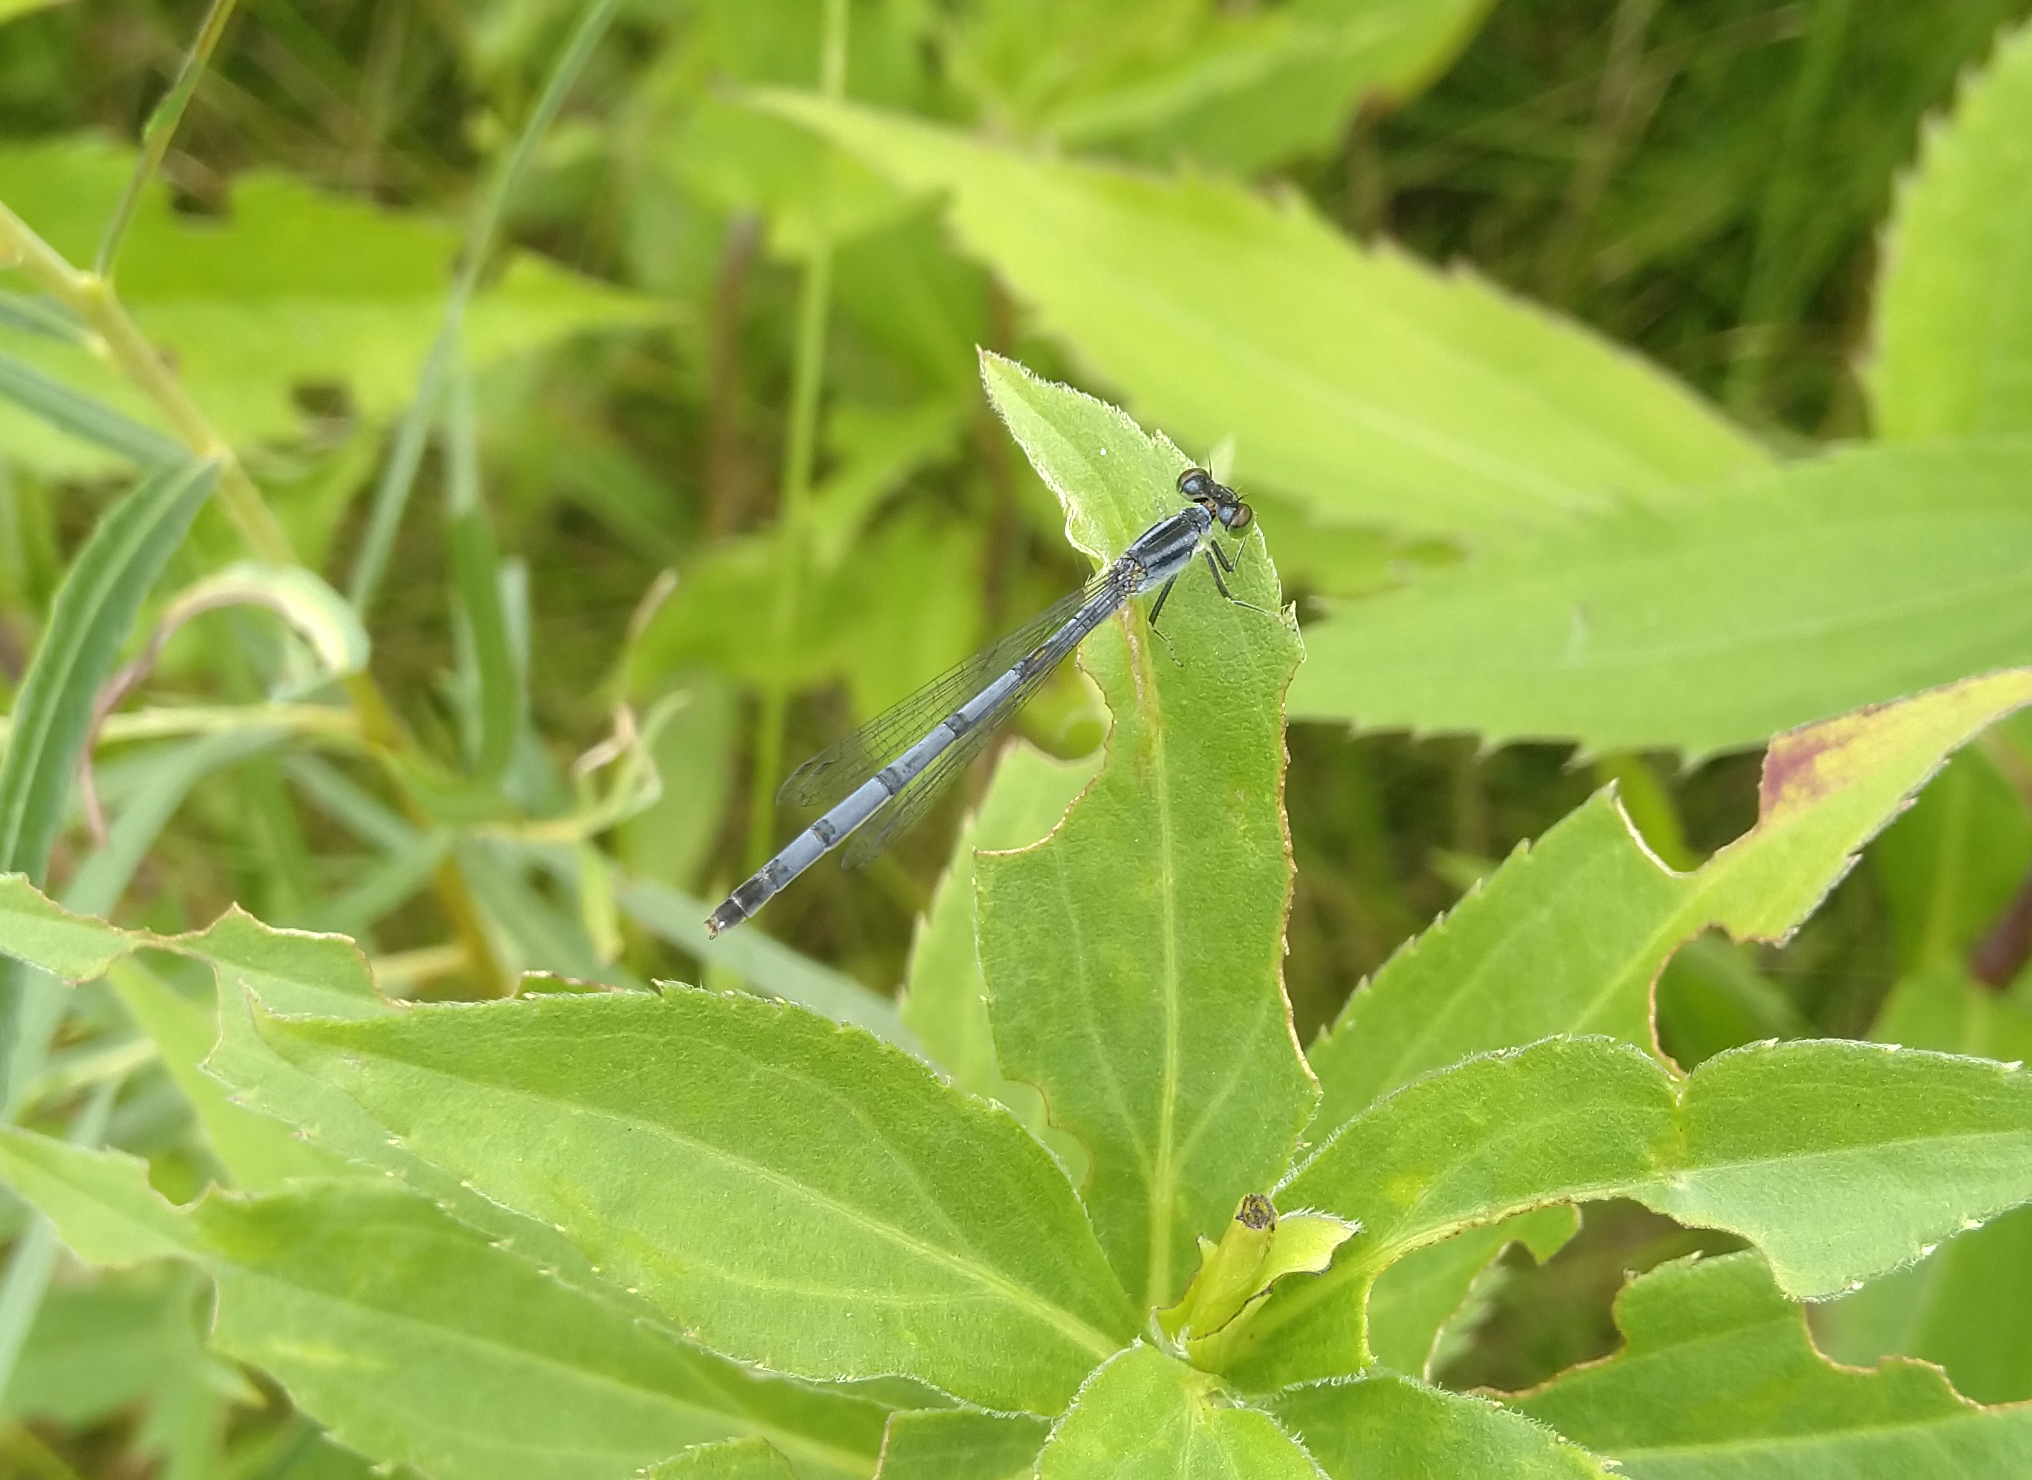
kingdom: Animalia
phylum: Arthropoda
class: Insecta
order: Odonata
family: Coenagrionidae
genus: Ischnura
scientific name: Ischnura verticalis
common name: Eastern forktail
